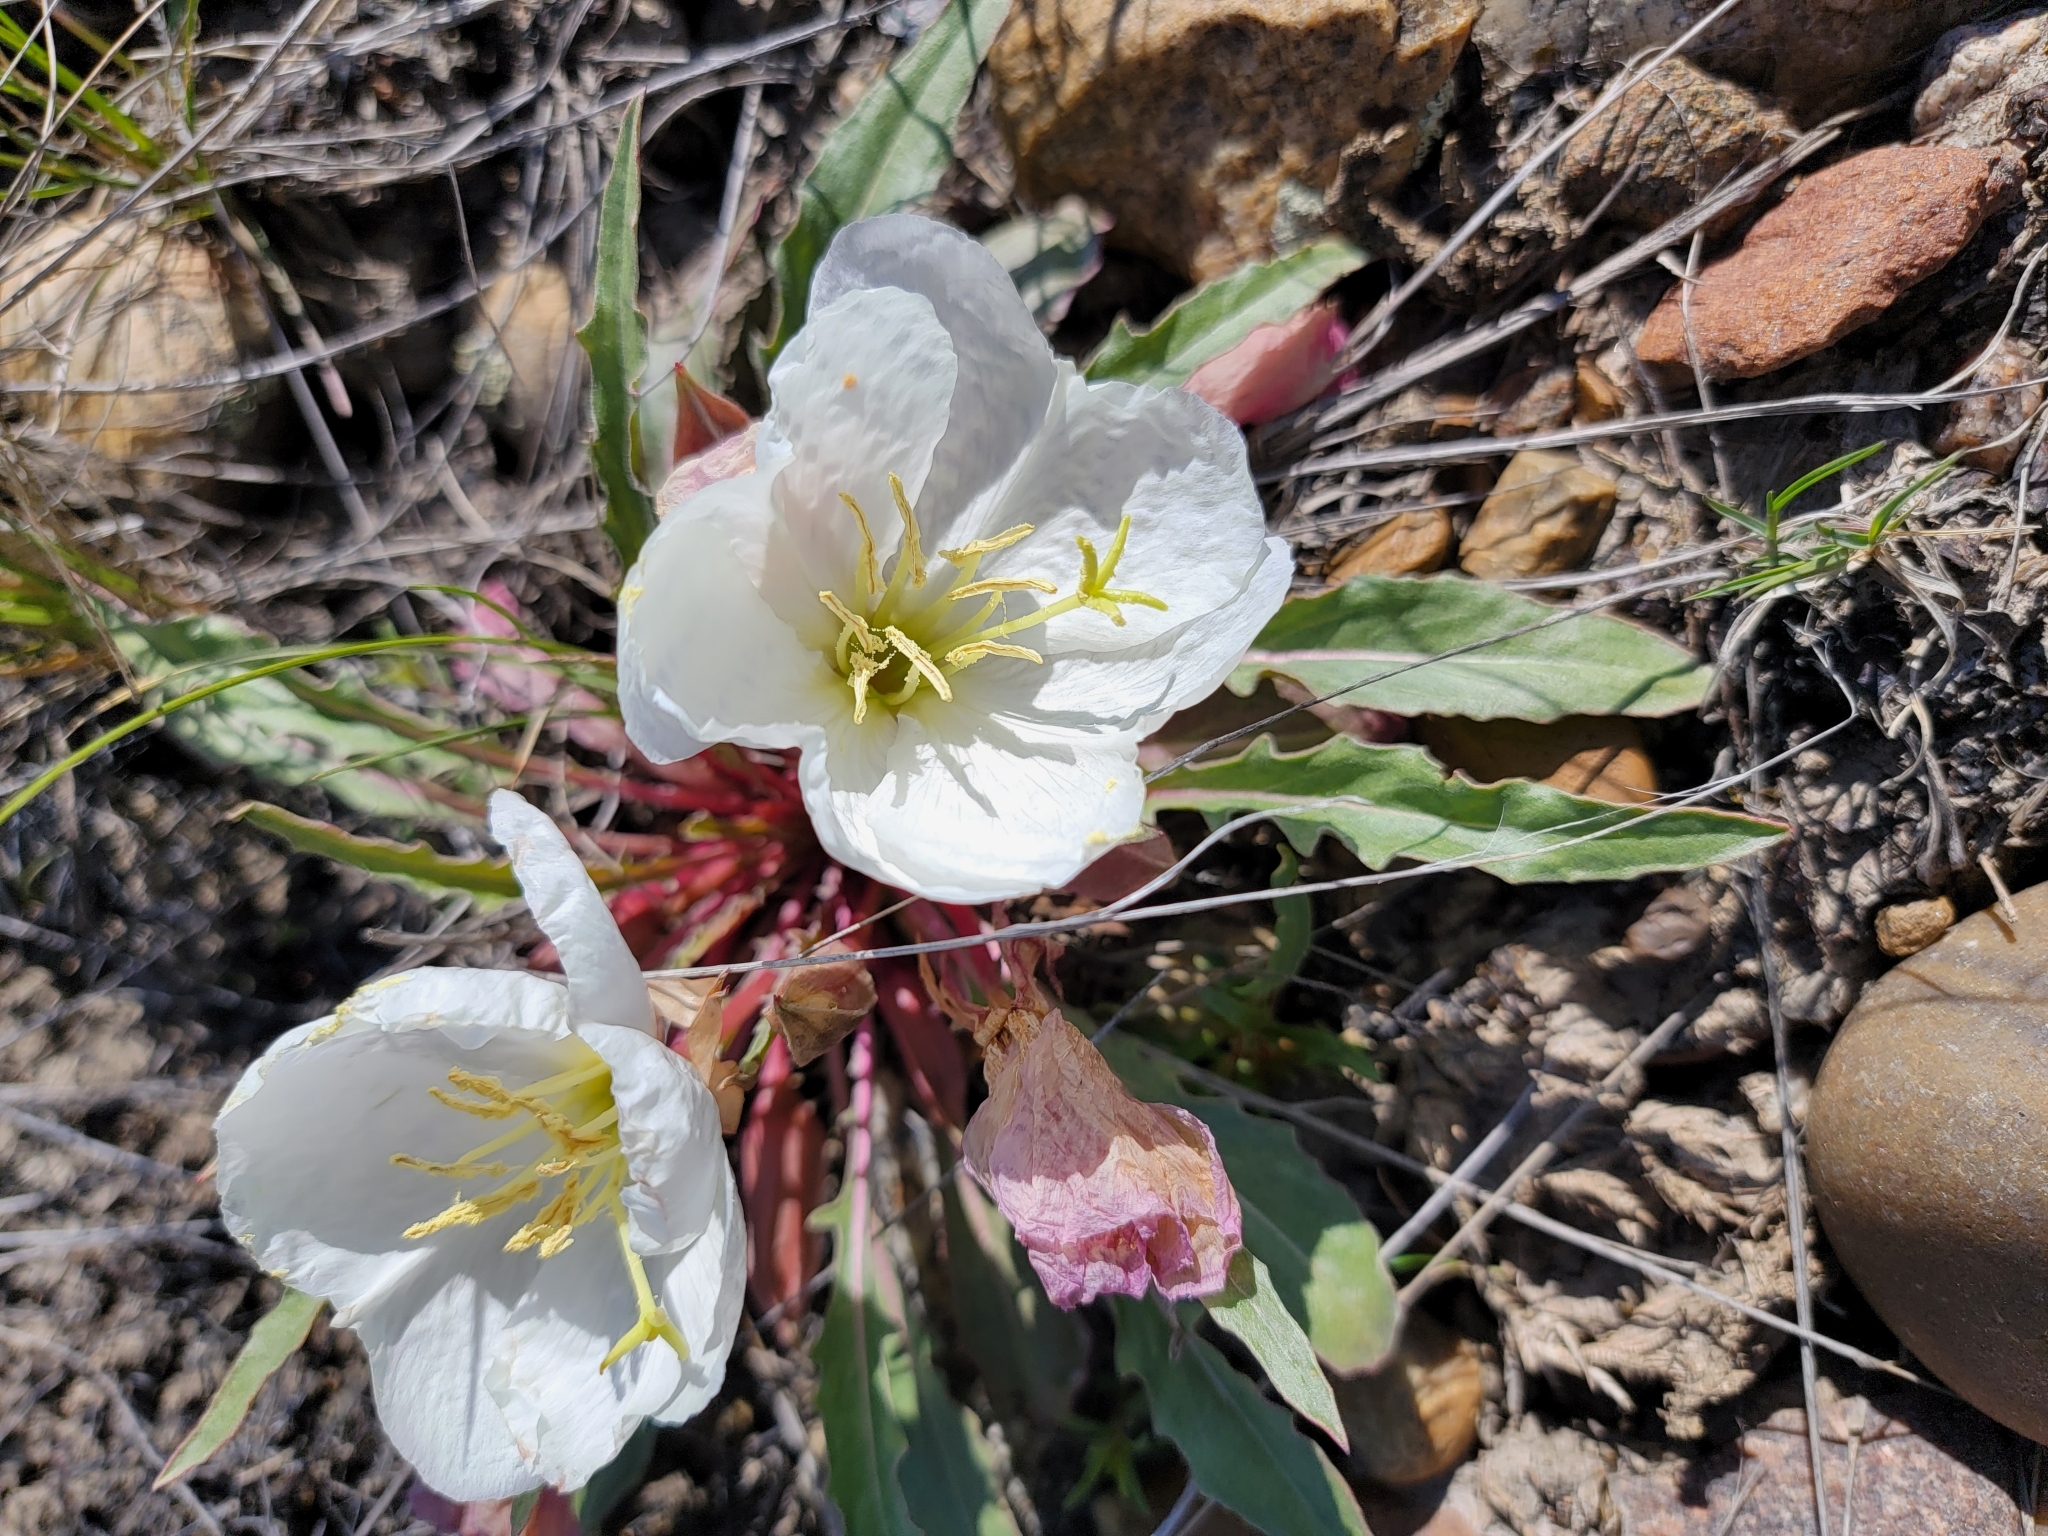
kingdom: Plantae
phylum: Tracheophyta
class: Magnoliopsida
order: Myrtales
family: Onagraceae
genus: Oenothera
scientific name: Oenothera cespitosa
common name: Tufted evening-primrose
